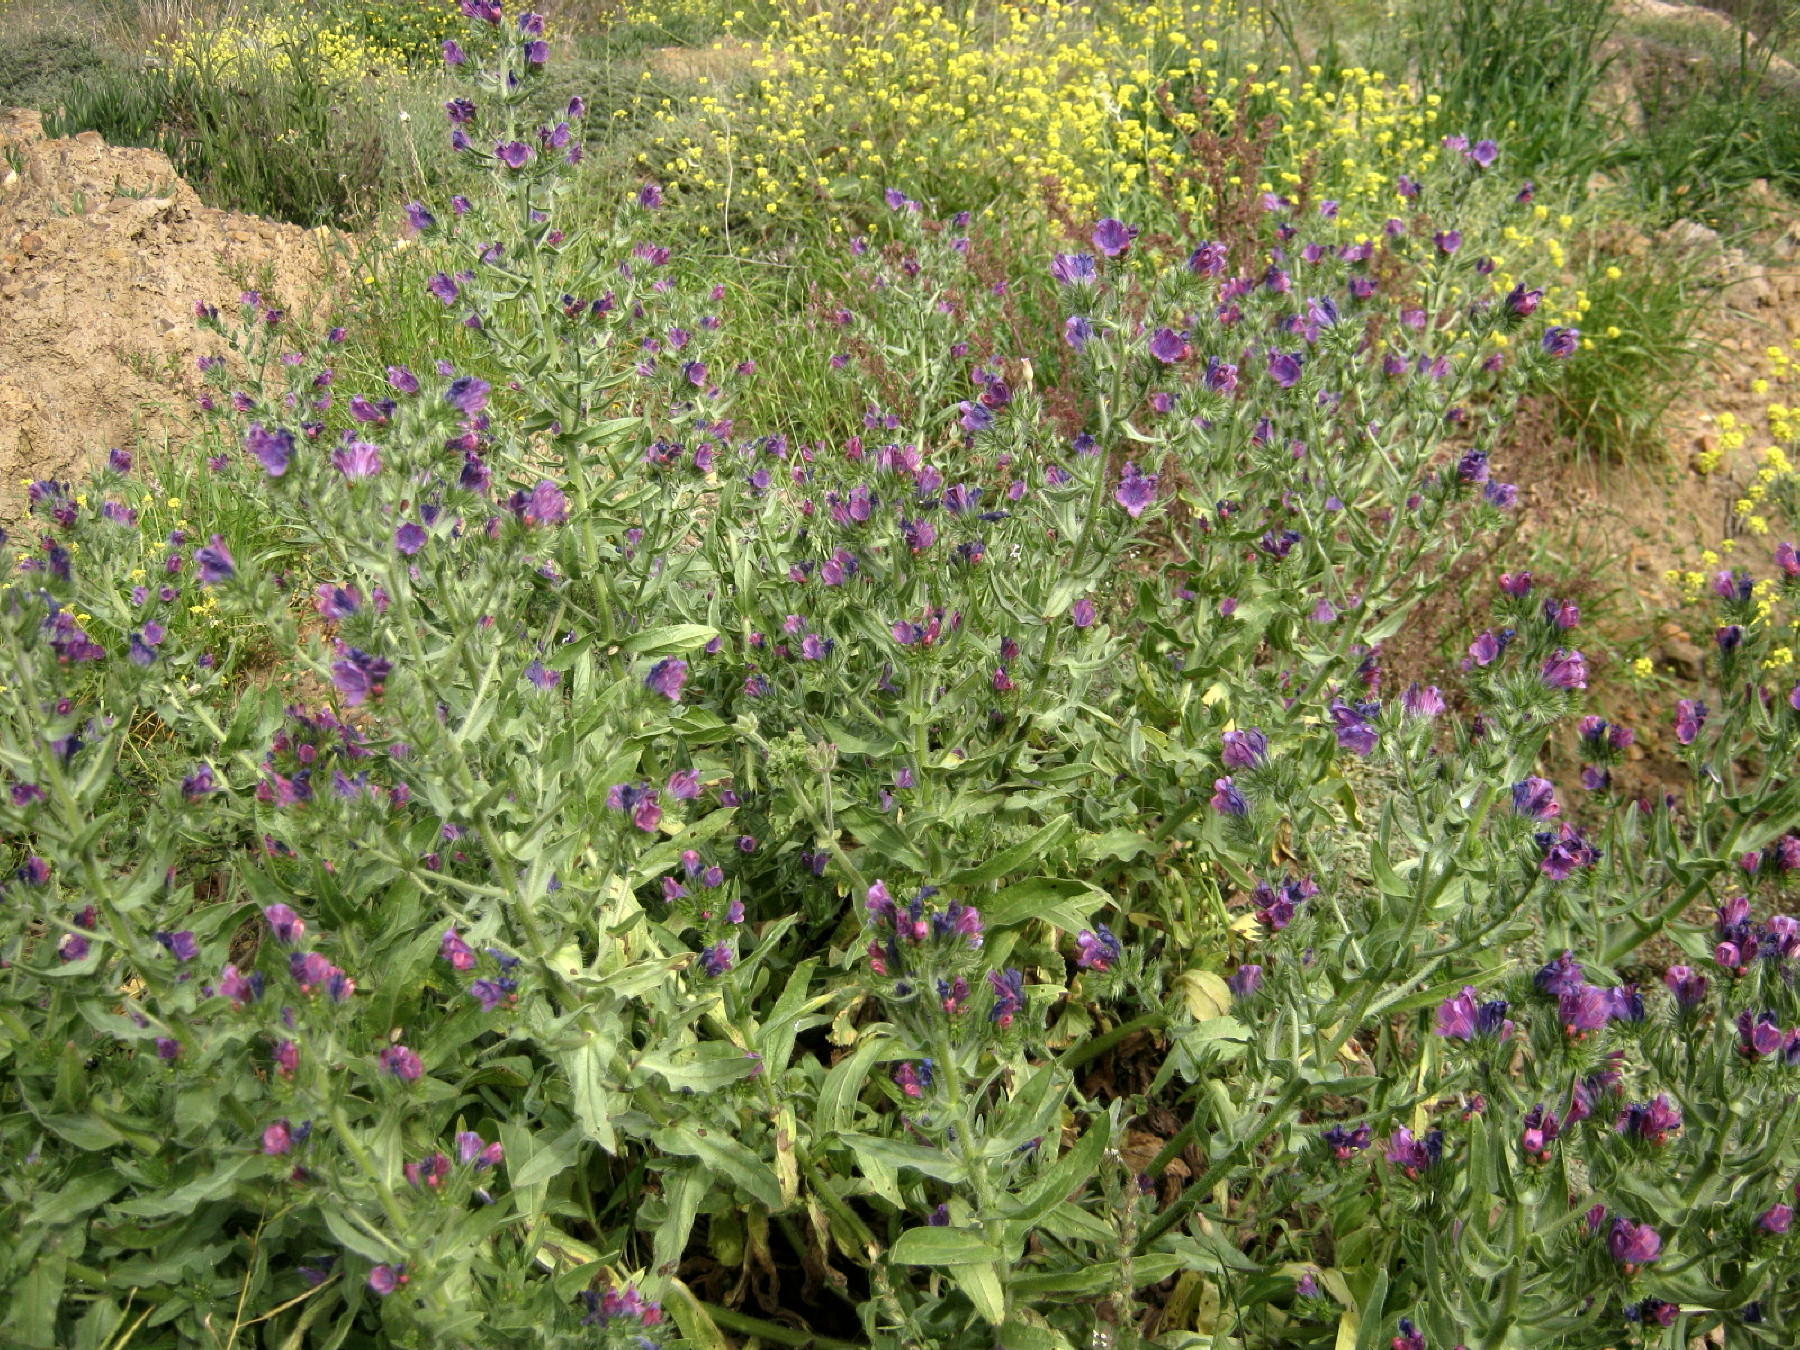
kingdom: Plantae
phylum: Tracheophyta
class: Magnoliopsida
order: Boraginales
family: Boraginaceae
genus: Echium
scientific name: Echium plantagineum
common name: Purple viper's-bugloss
